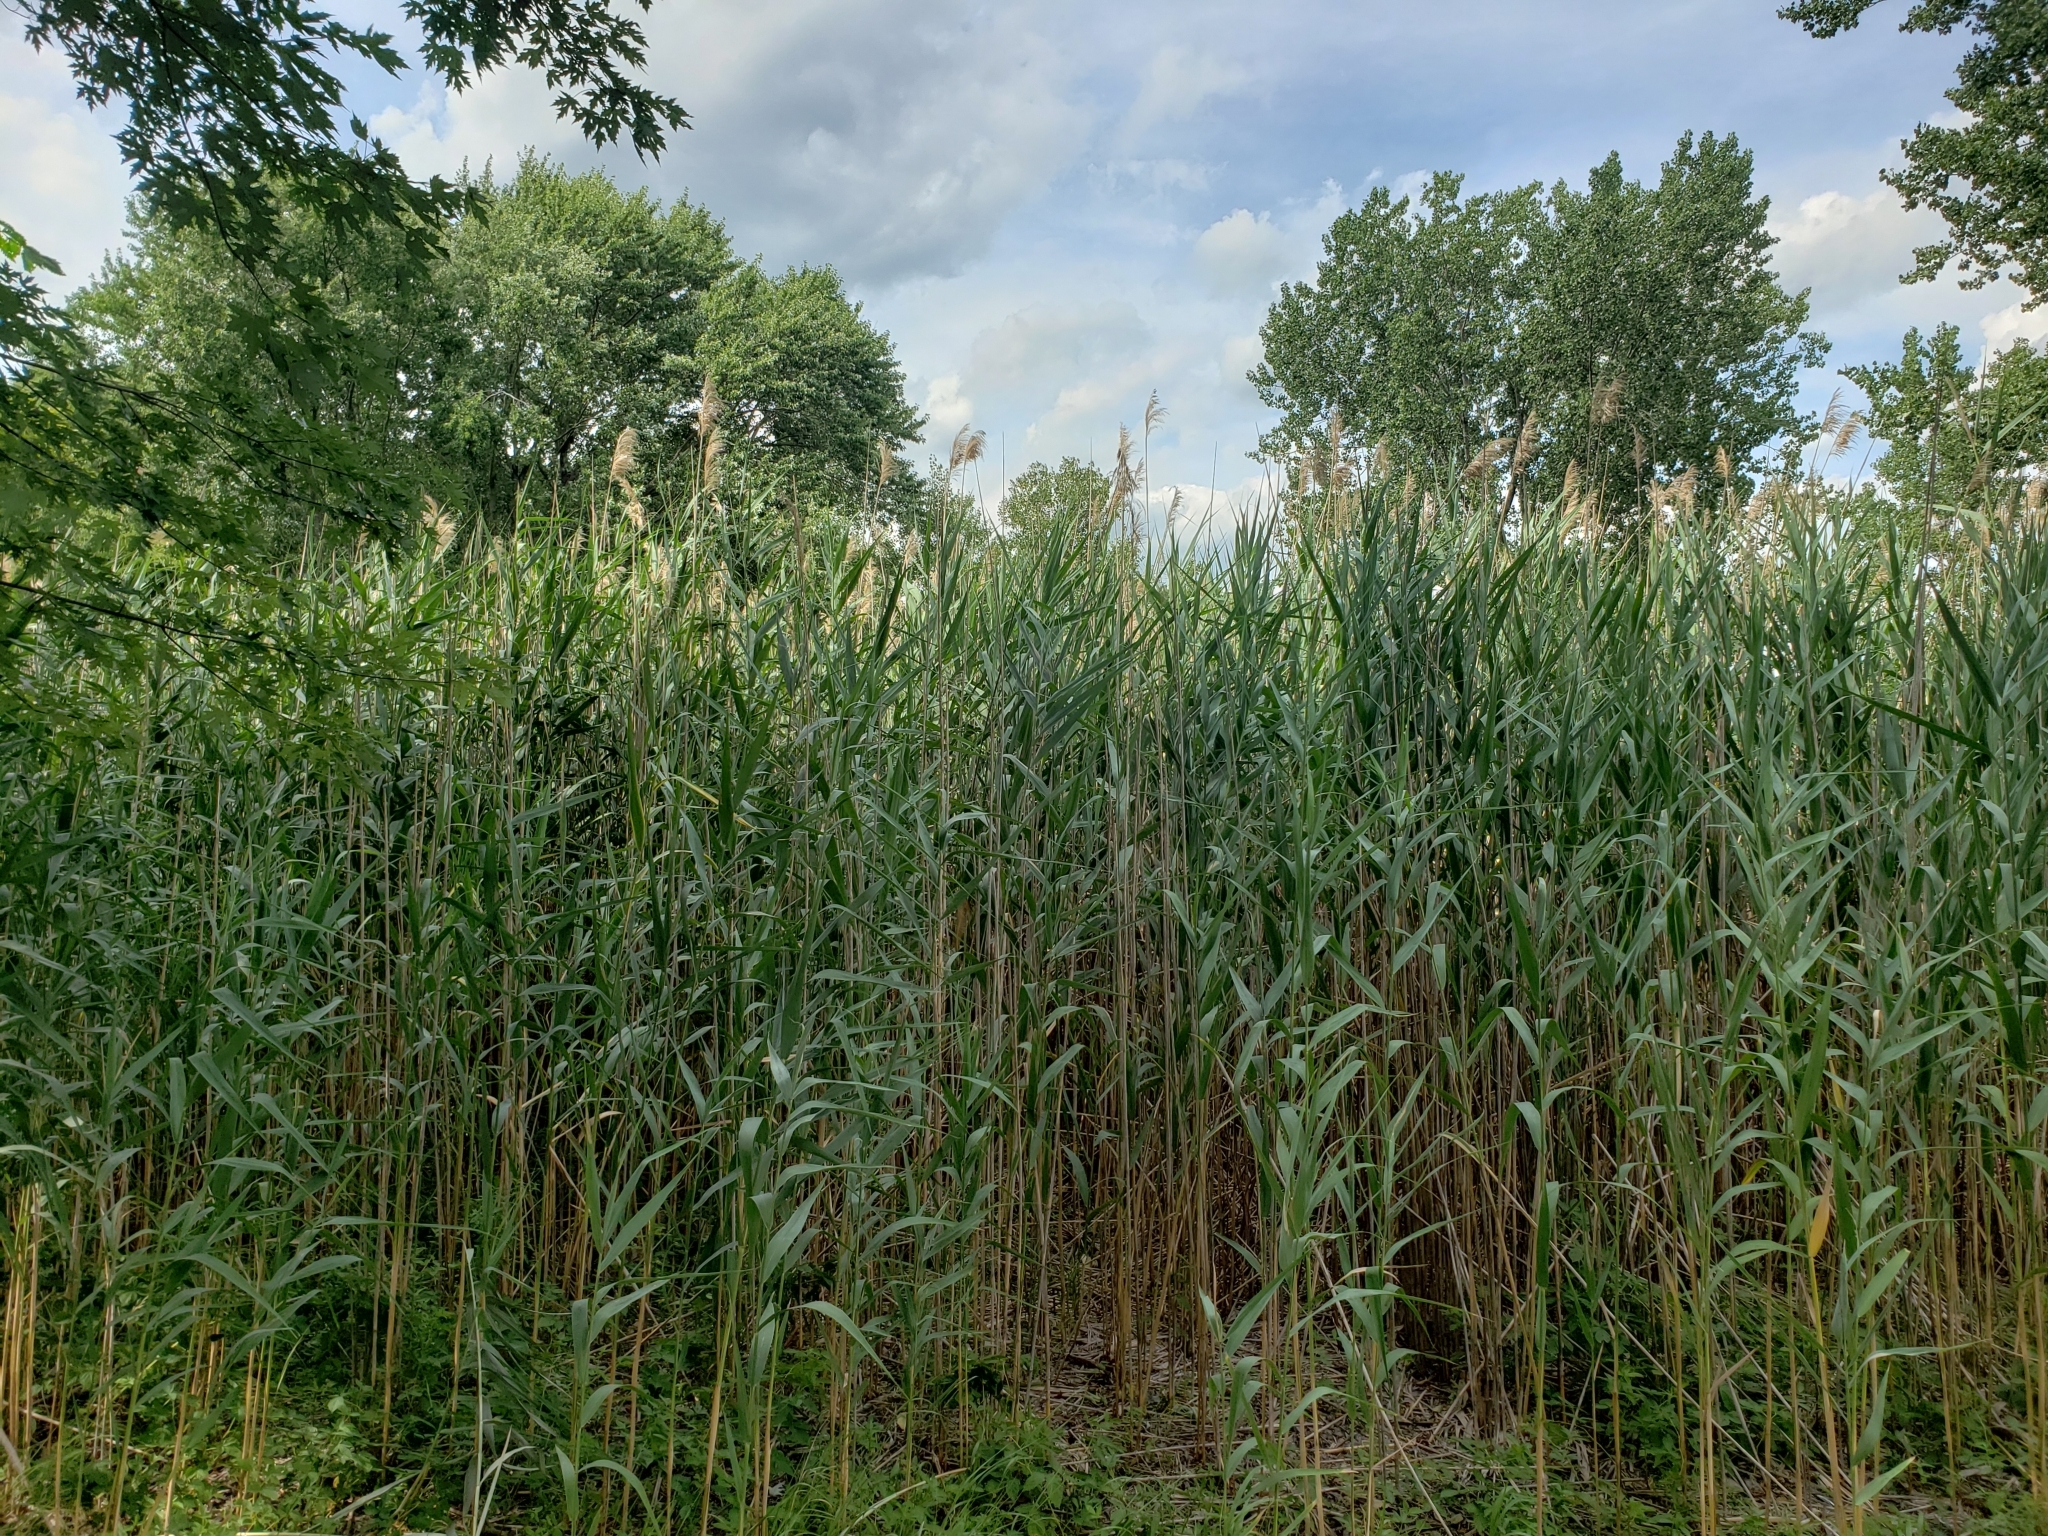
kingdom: Plantae
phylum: Tracheophyta
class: Liliopsida
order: Poales
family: Poaceae
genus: Phragmites
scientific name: Phragmites australis
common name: Common reed
